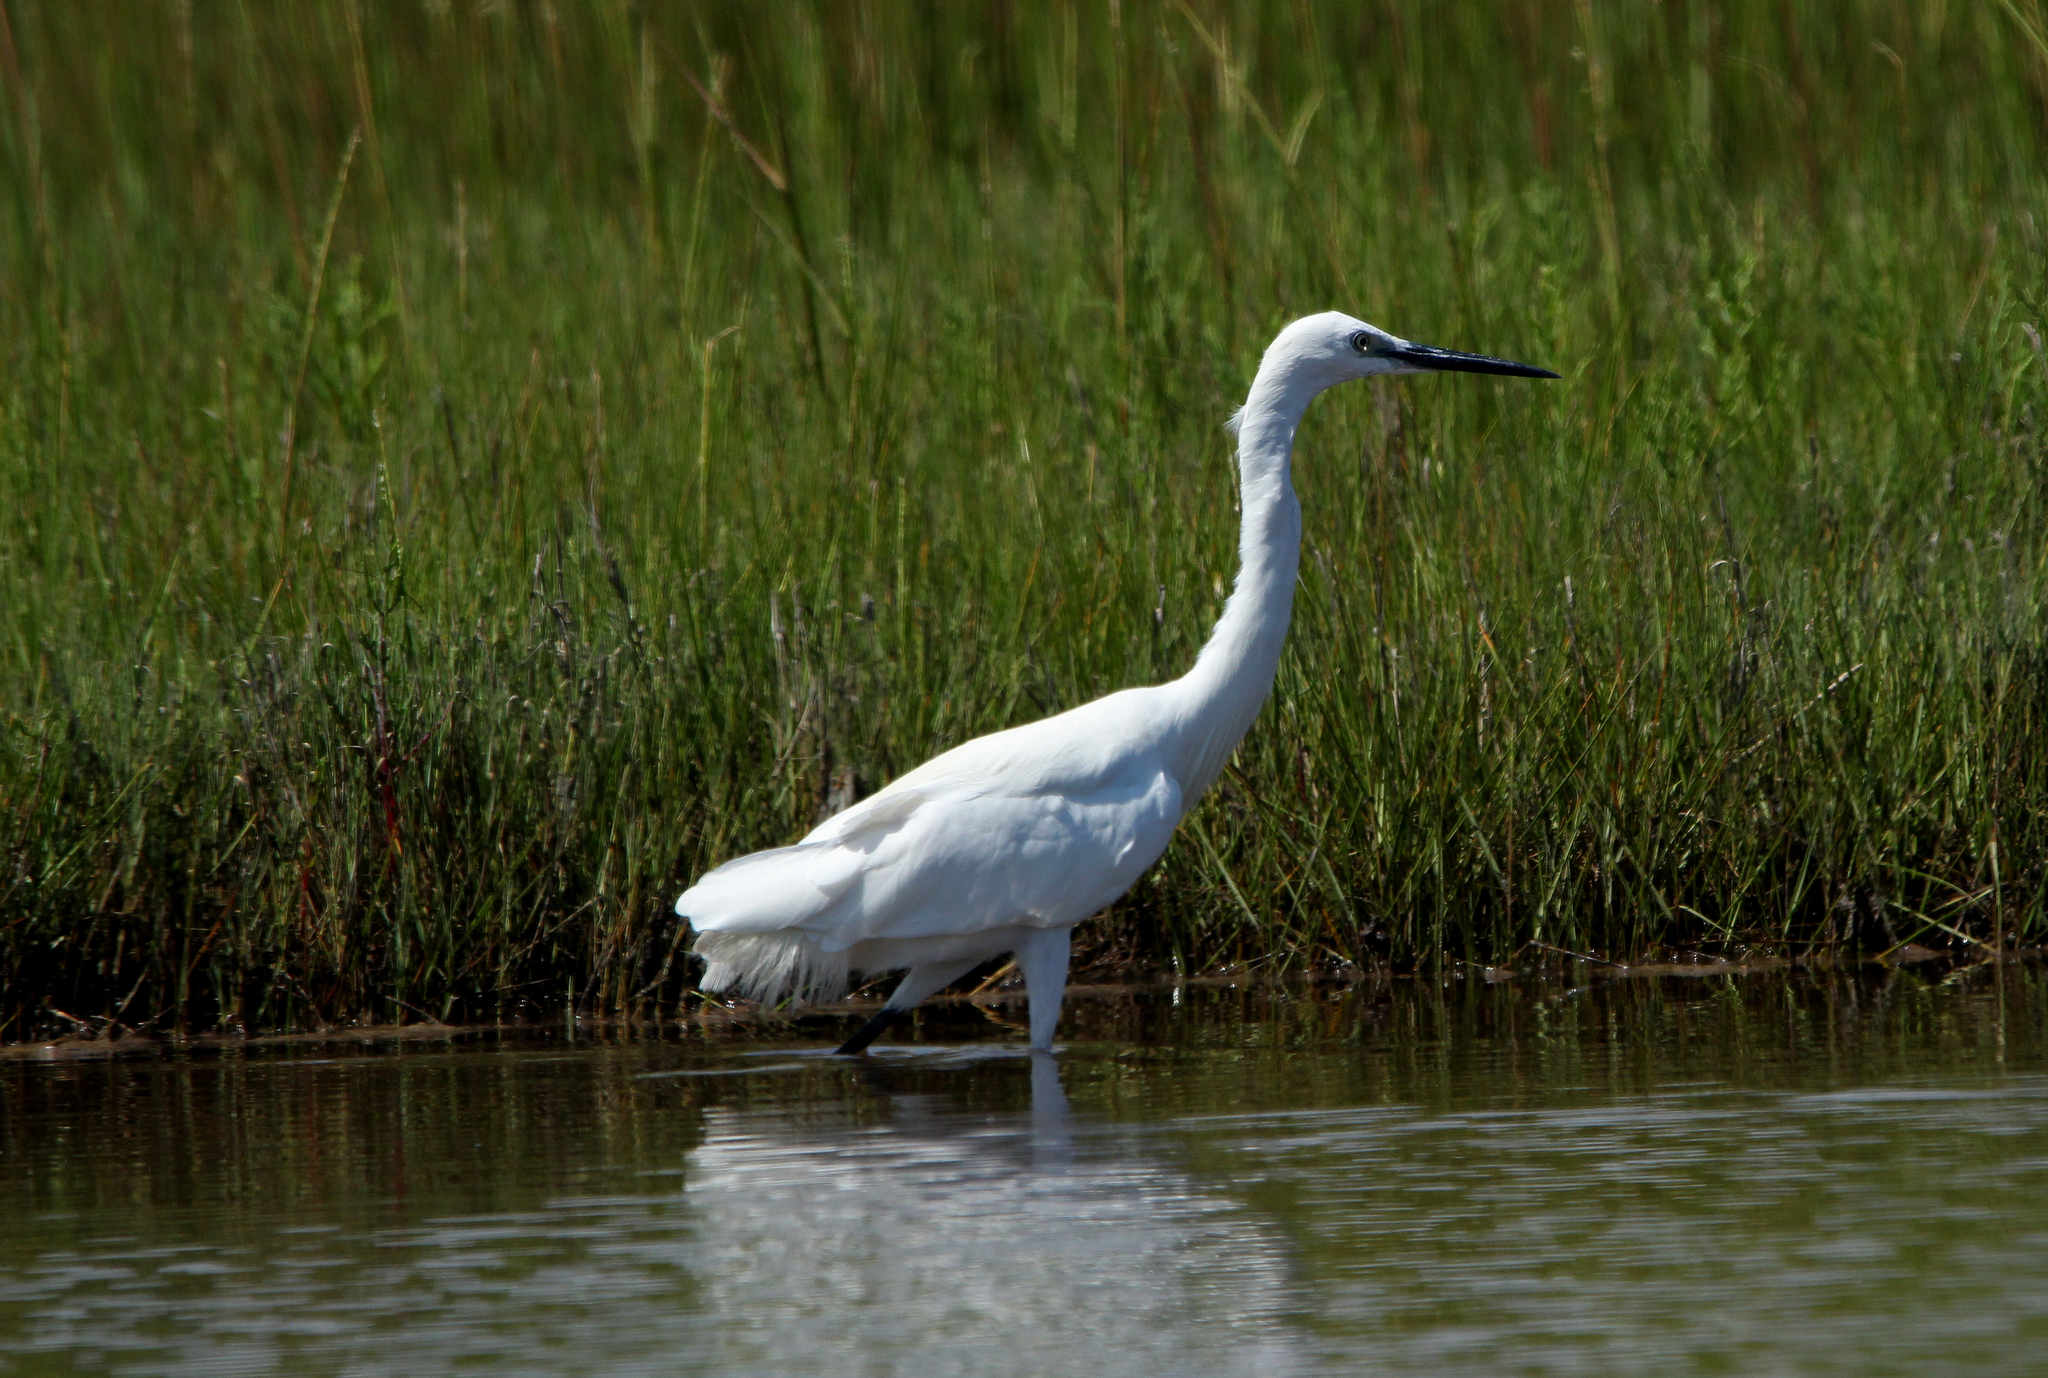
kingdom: Animalia
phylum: Chordata
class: Aves
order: Pelecaniformes
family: Ardeidae
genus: Egretta
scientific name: Egretta garzetta
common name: Little egret
